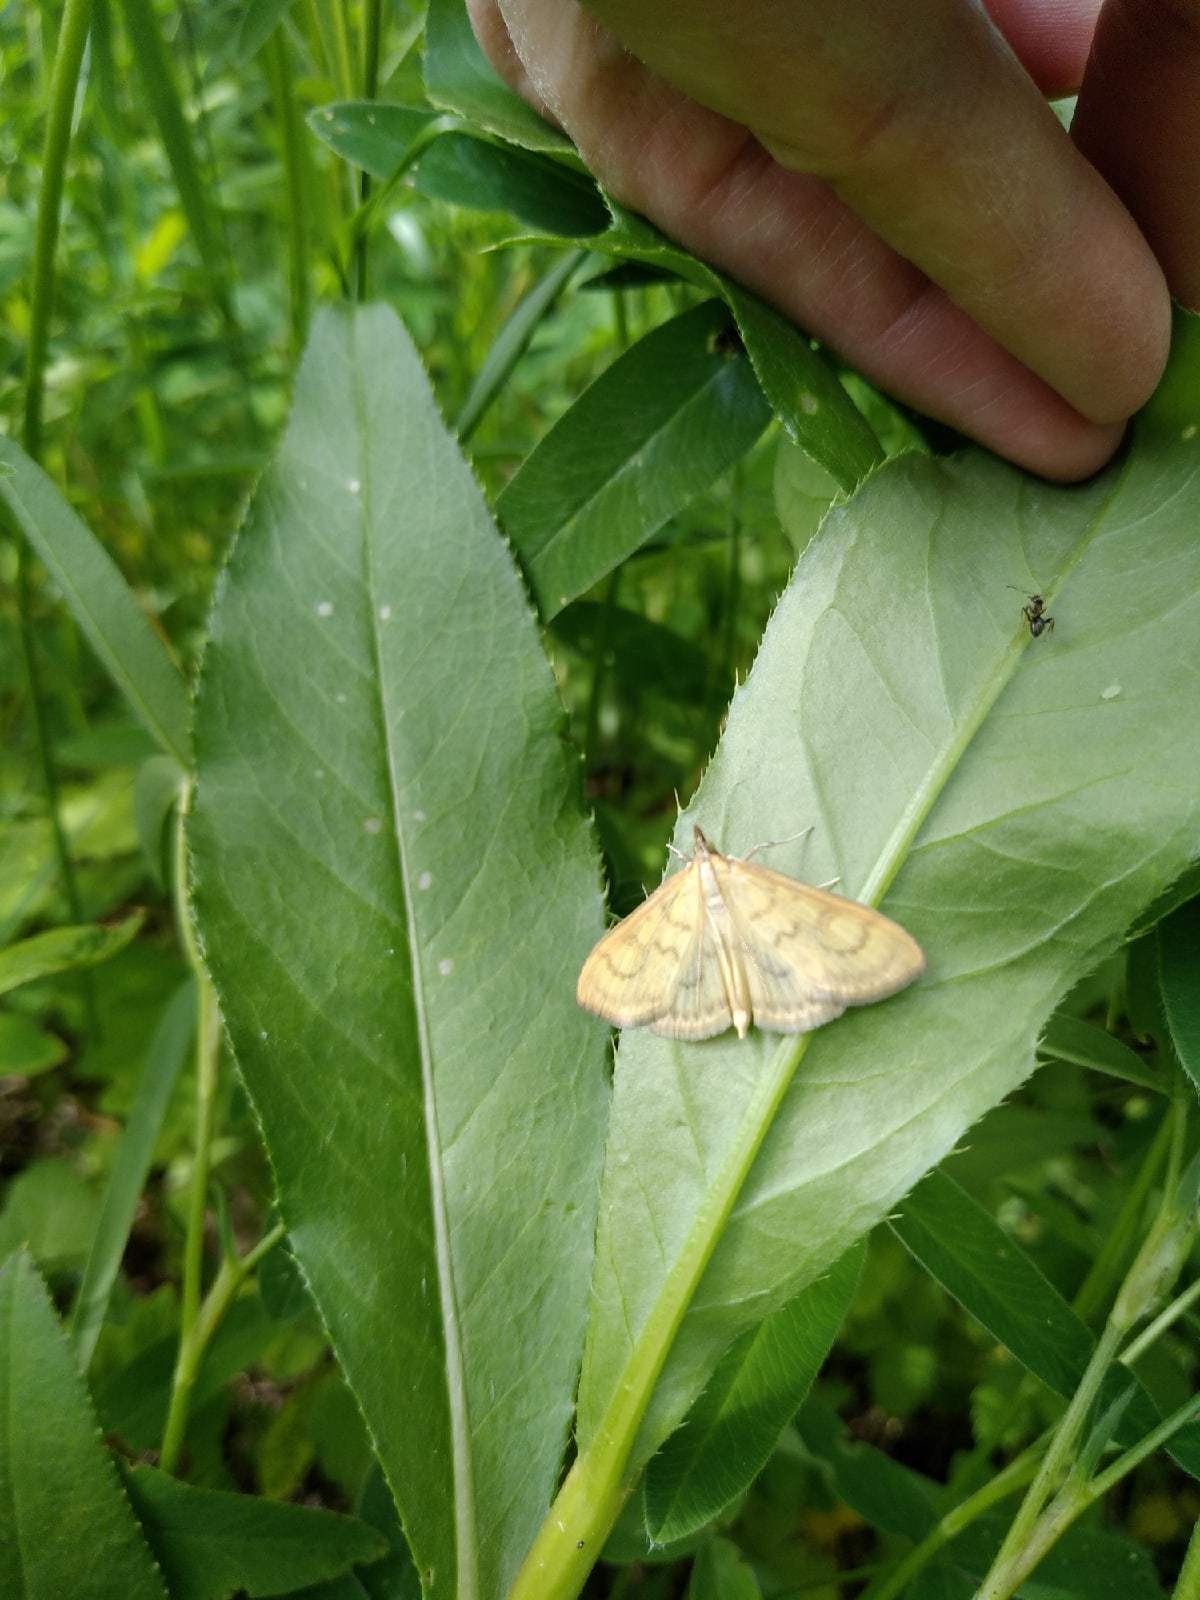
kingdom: Animalia
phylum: Arthropoda
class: Insecta
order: Lepidoptera
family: Crambidae
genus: Paratalanta
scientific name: Paratalanta hyalinalis
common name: Translucent pearl
